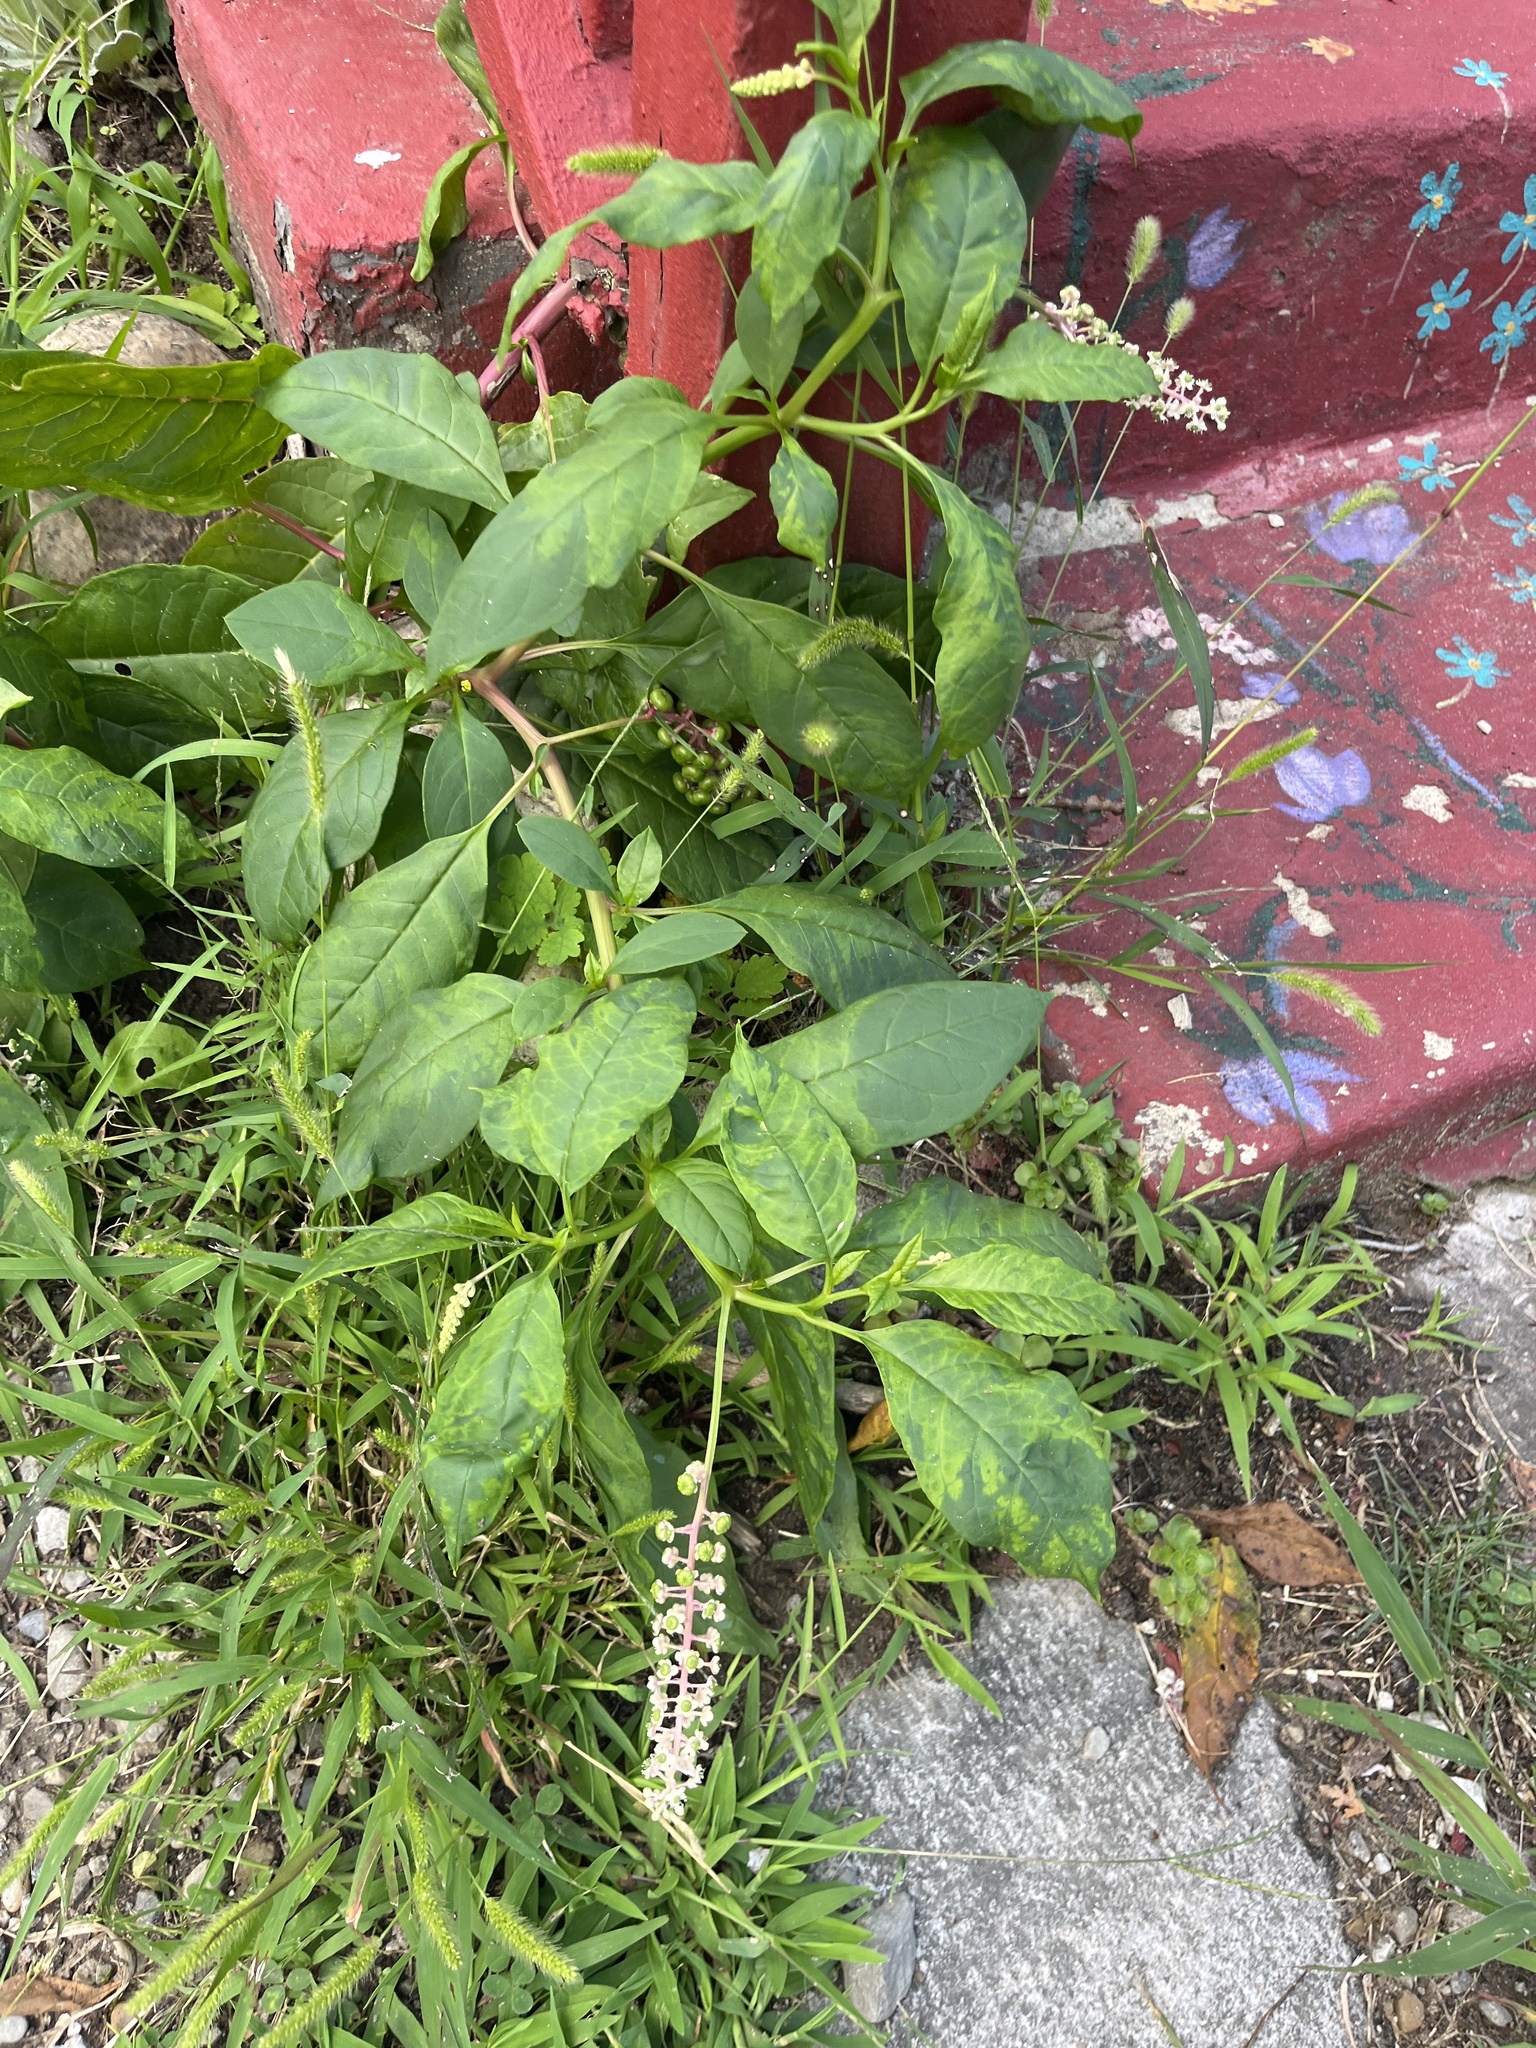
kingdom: Plantae
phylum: Tracheophyta
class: Magnoliopsida
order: Caryophyllales
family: Phytolaccaceae
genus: Phytolacca
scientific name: Phytolacca americana
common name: American pokeweed
